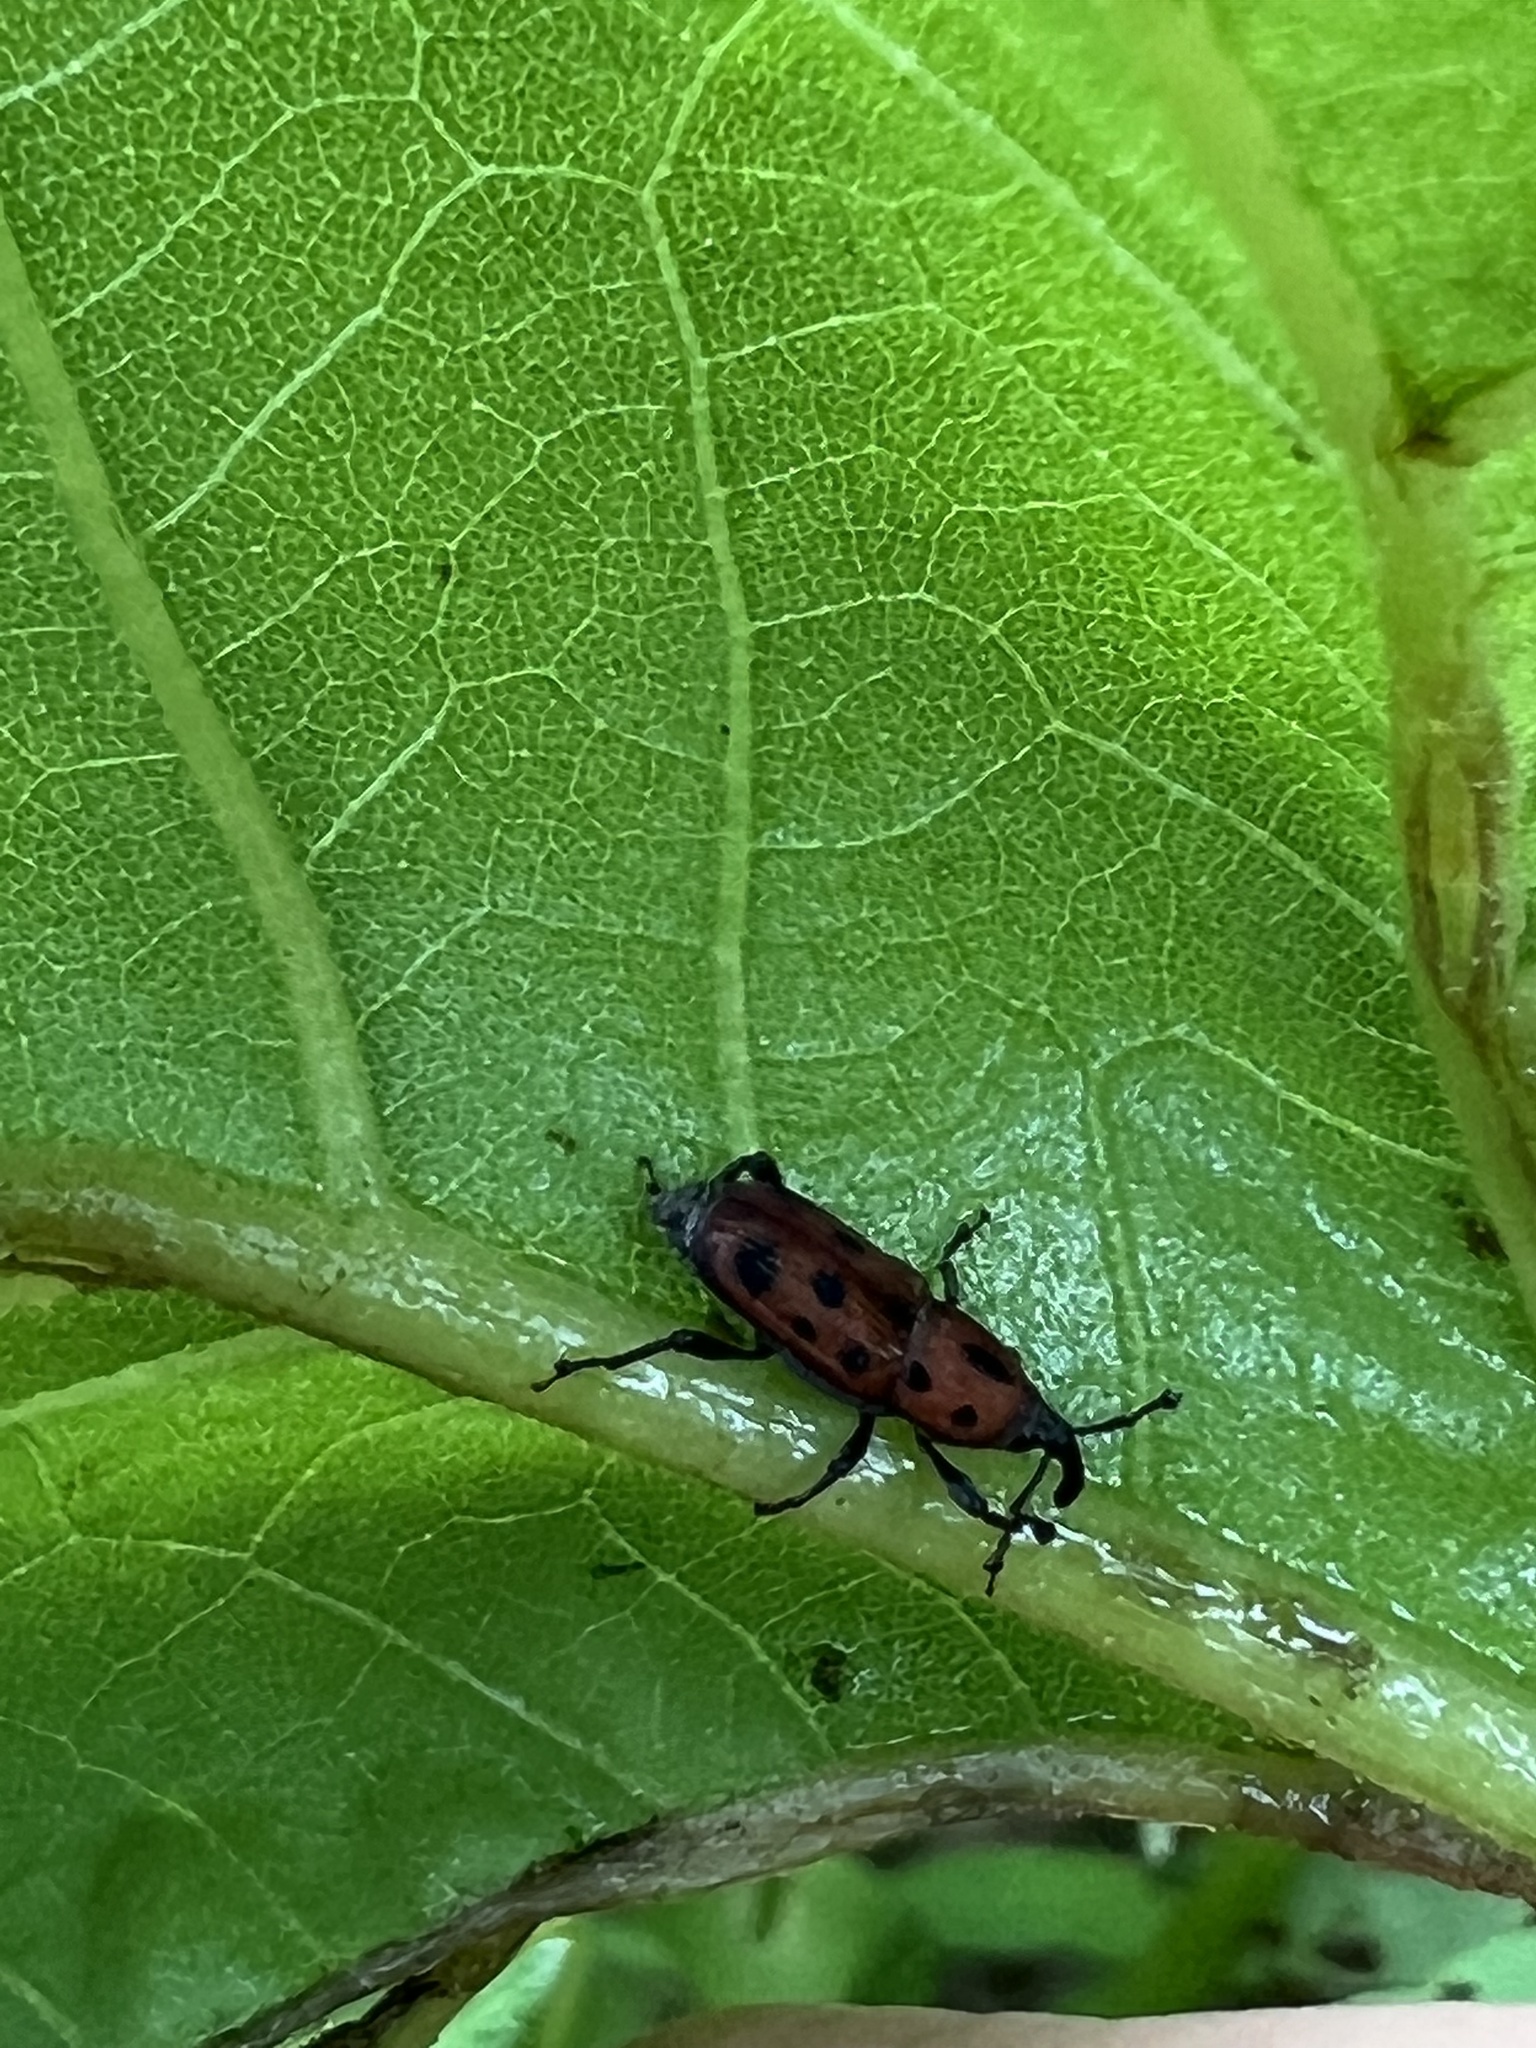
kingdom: Animalia
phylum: Arthropoda
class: Insecta
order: Coleoptera
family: Dryophthoridae
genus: Rhodobaenus
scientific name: Rhodobaenus tredecimpunctatus
